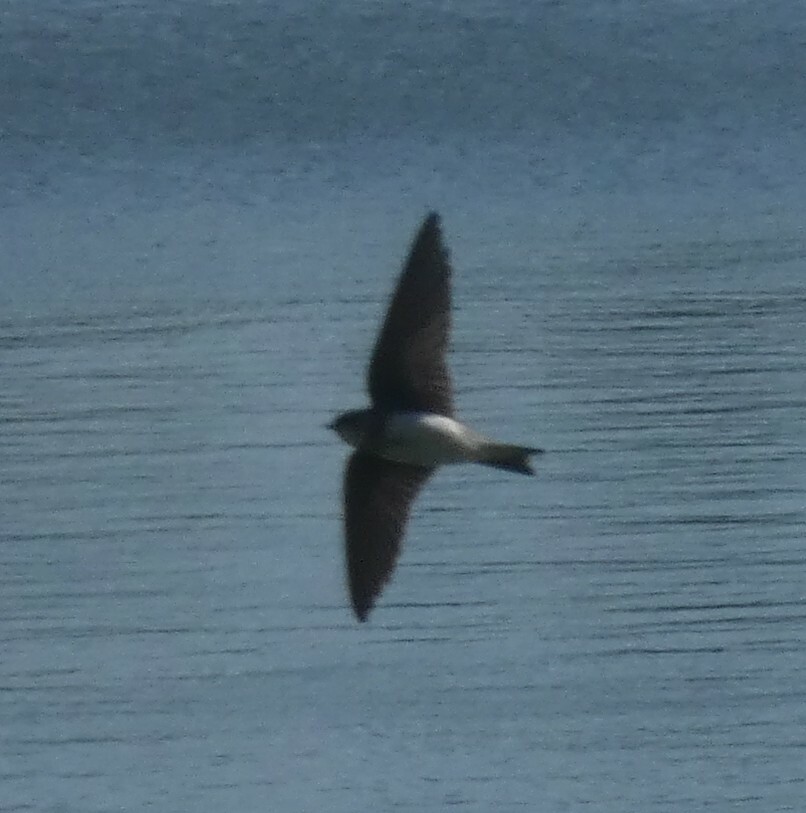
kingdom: Animalia
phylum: Chordata
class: Aves
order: Passeriformes
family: Hirundinidae
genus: Riparia
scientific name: Riparia riparia
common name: Sand martin
